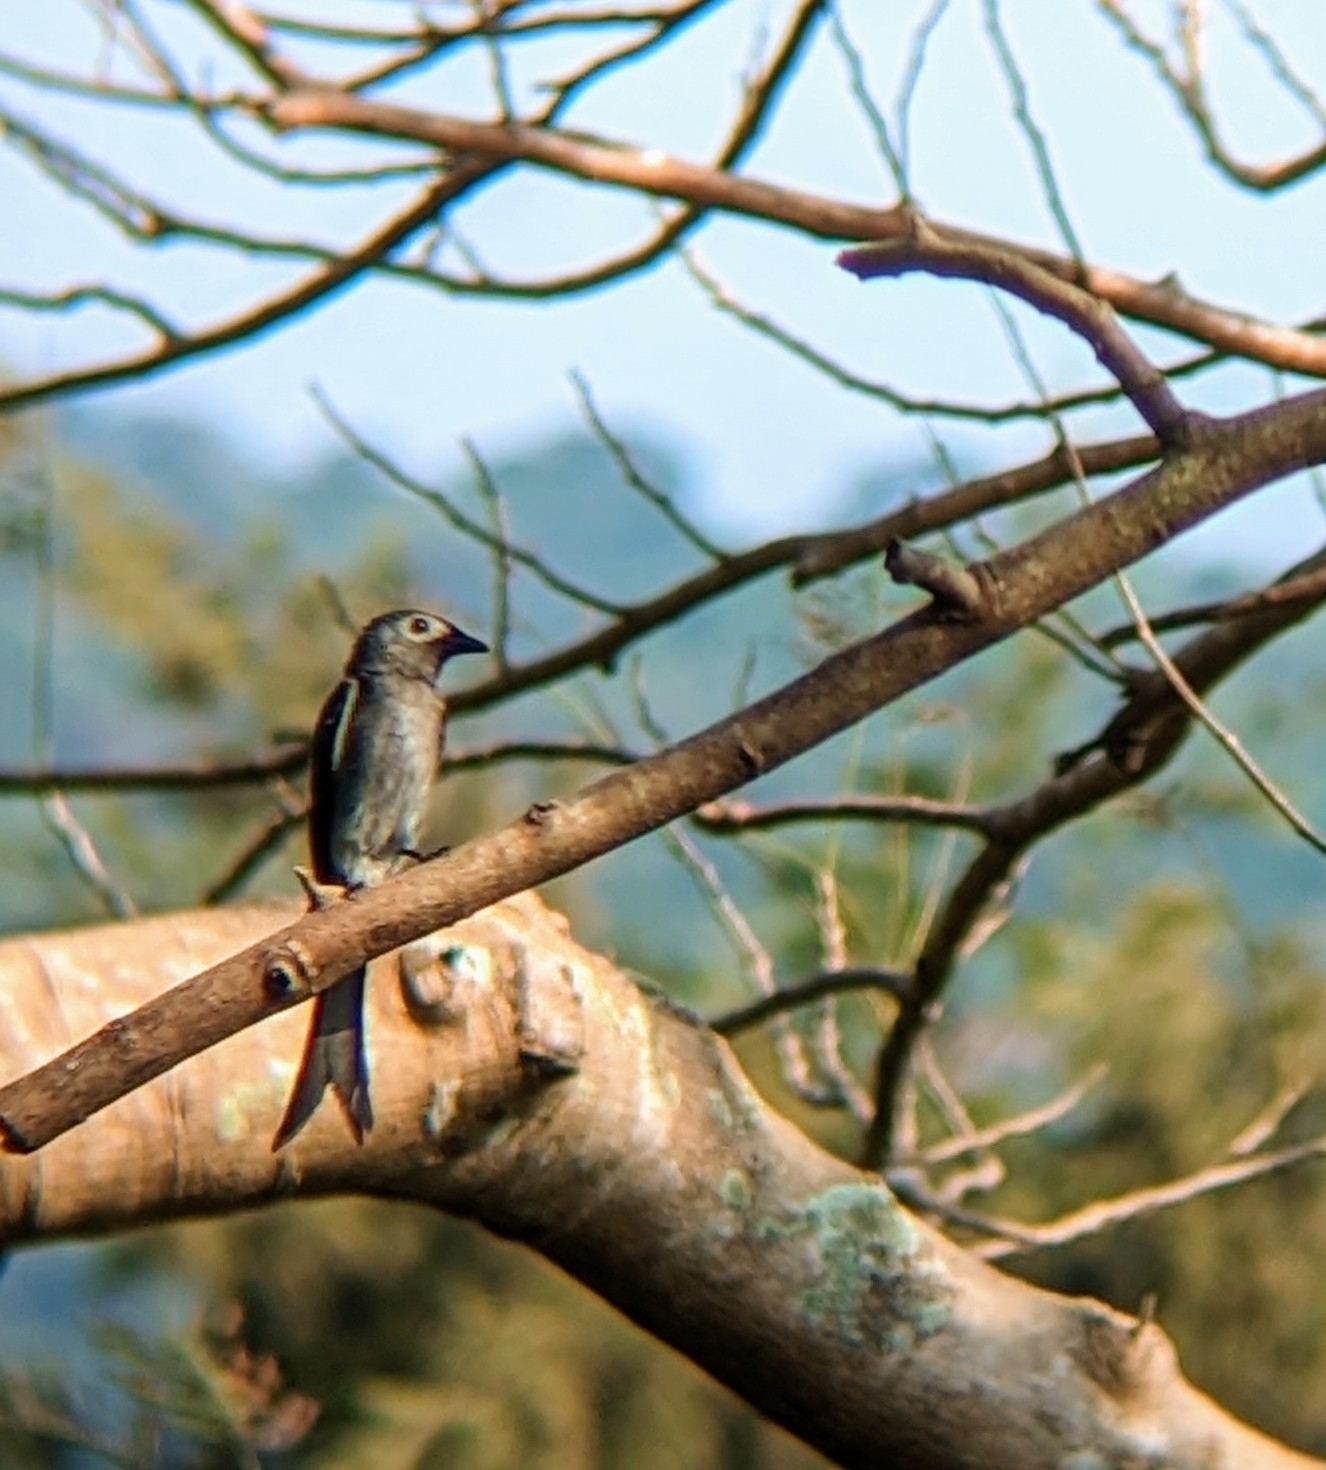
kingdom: Animalia
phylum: Chordata
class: Aves
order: Passeriformes
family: Dicruridae
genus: Dicrurus
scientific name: Dicrurus leucophaeus
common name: Ashy drongo
